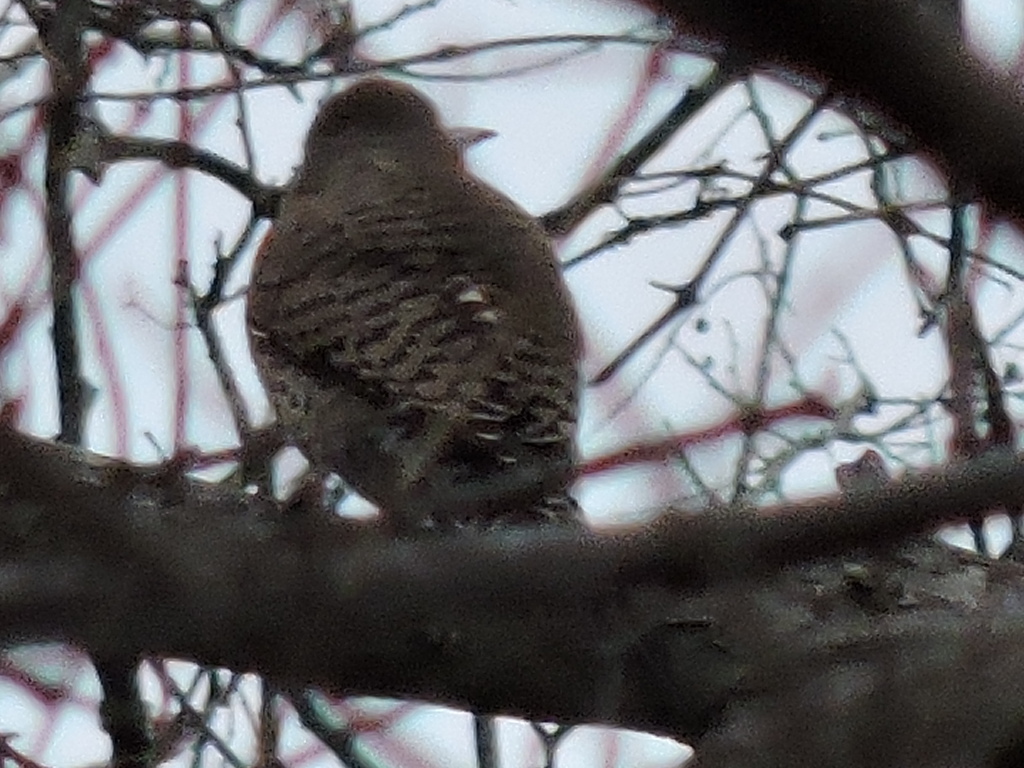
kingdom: Animalia
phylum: Chordata
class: Aves
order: Piciformes
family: Picidae
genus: Colaptes
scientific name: Colaptes auratus
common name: Northern flicker
